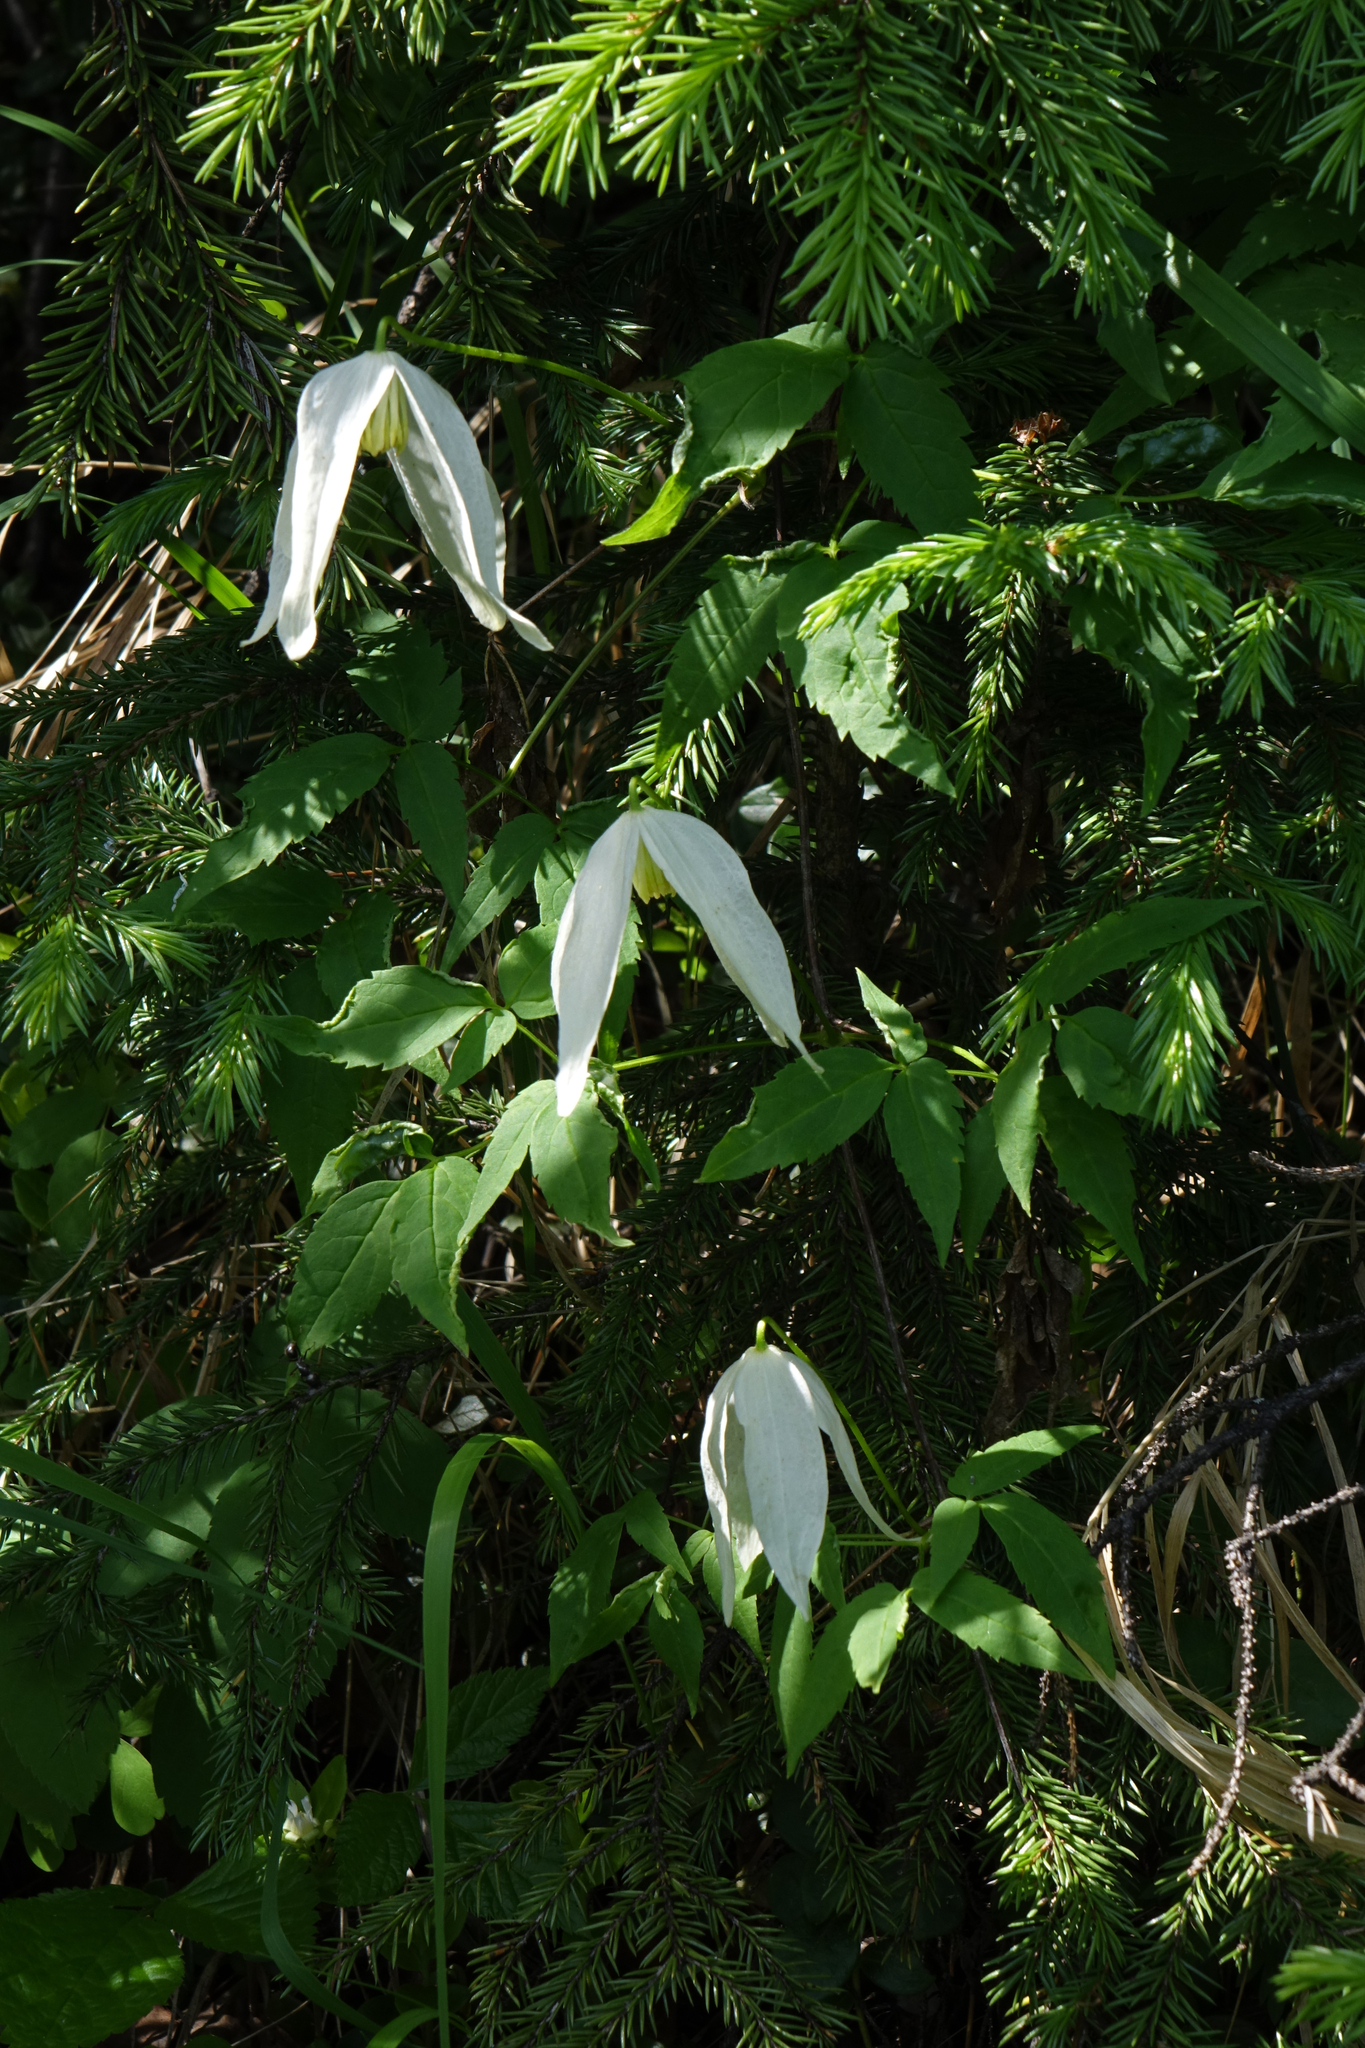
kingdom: Plantae
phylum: Tracheophyta
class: Magnoliopsida
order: Ranunculales
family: Ranunculaceae
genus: Clematis
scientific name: Clematis sibirica
